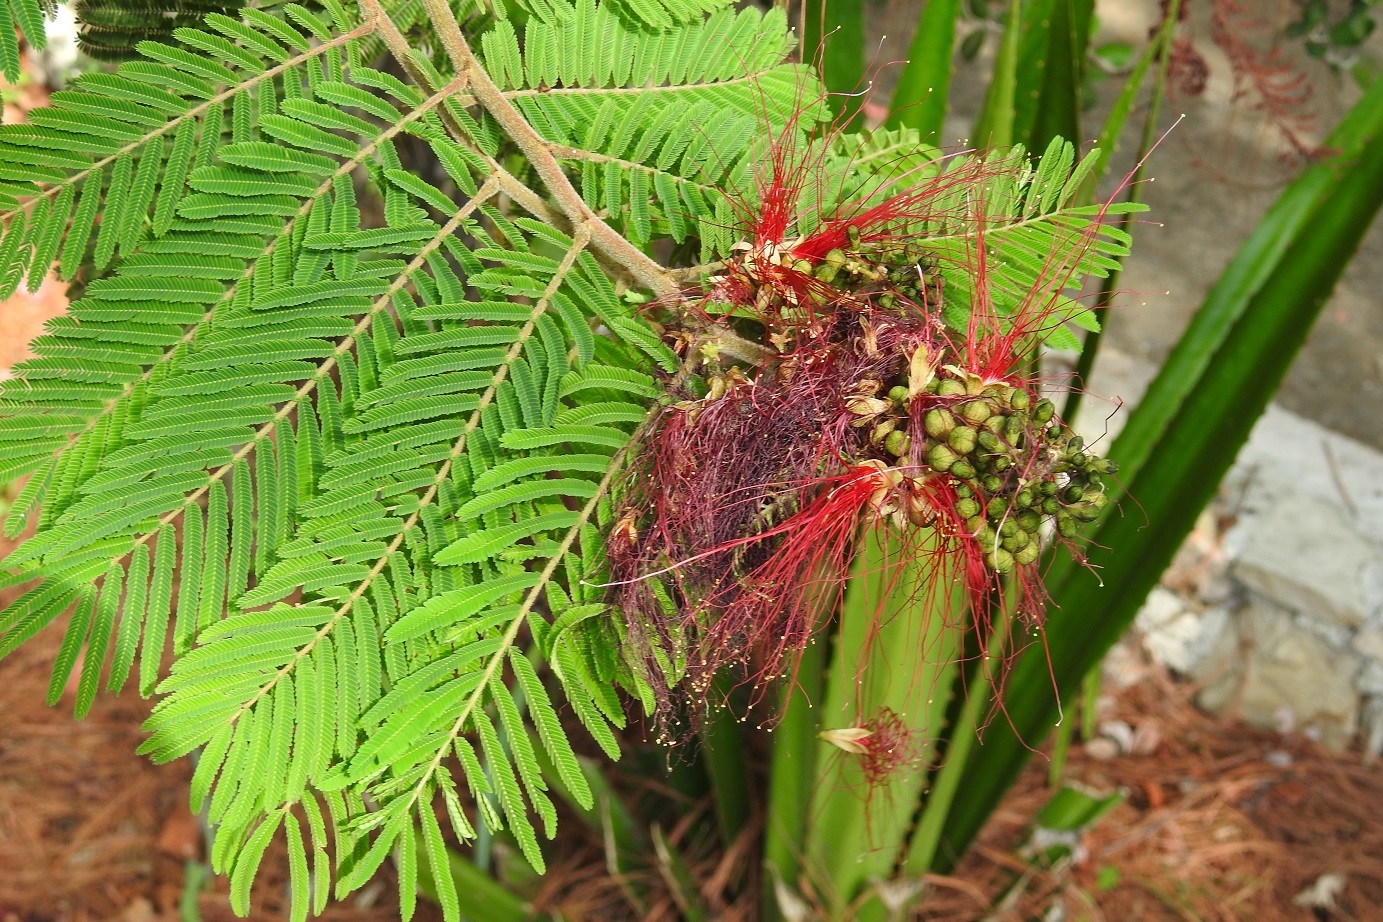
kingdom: Plantae
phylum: Tracheophyta
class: Magnoliopsida
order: Fabales
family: Fabaceae
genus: Calliandra
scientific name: Calliandra houstoniana
